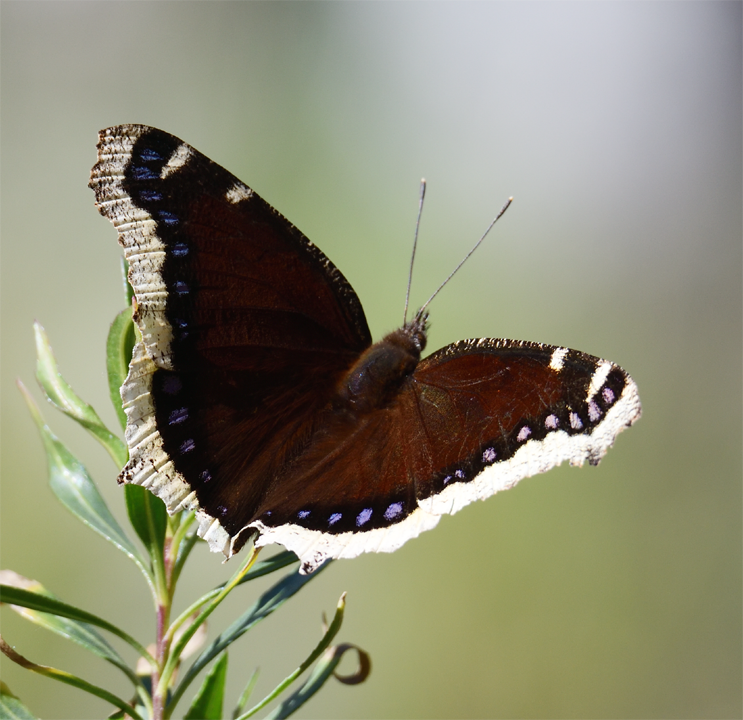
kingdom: Animalia
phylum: Arthropoda
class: Insecta
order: Lepidoptera
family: Nymphalidae
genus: Nymphalis
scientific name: Nymphalis antiopa
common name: Camberwell beauty
